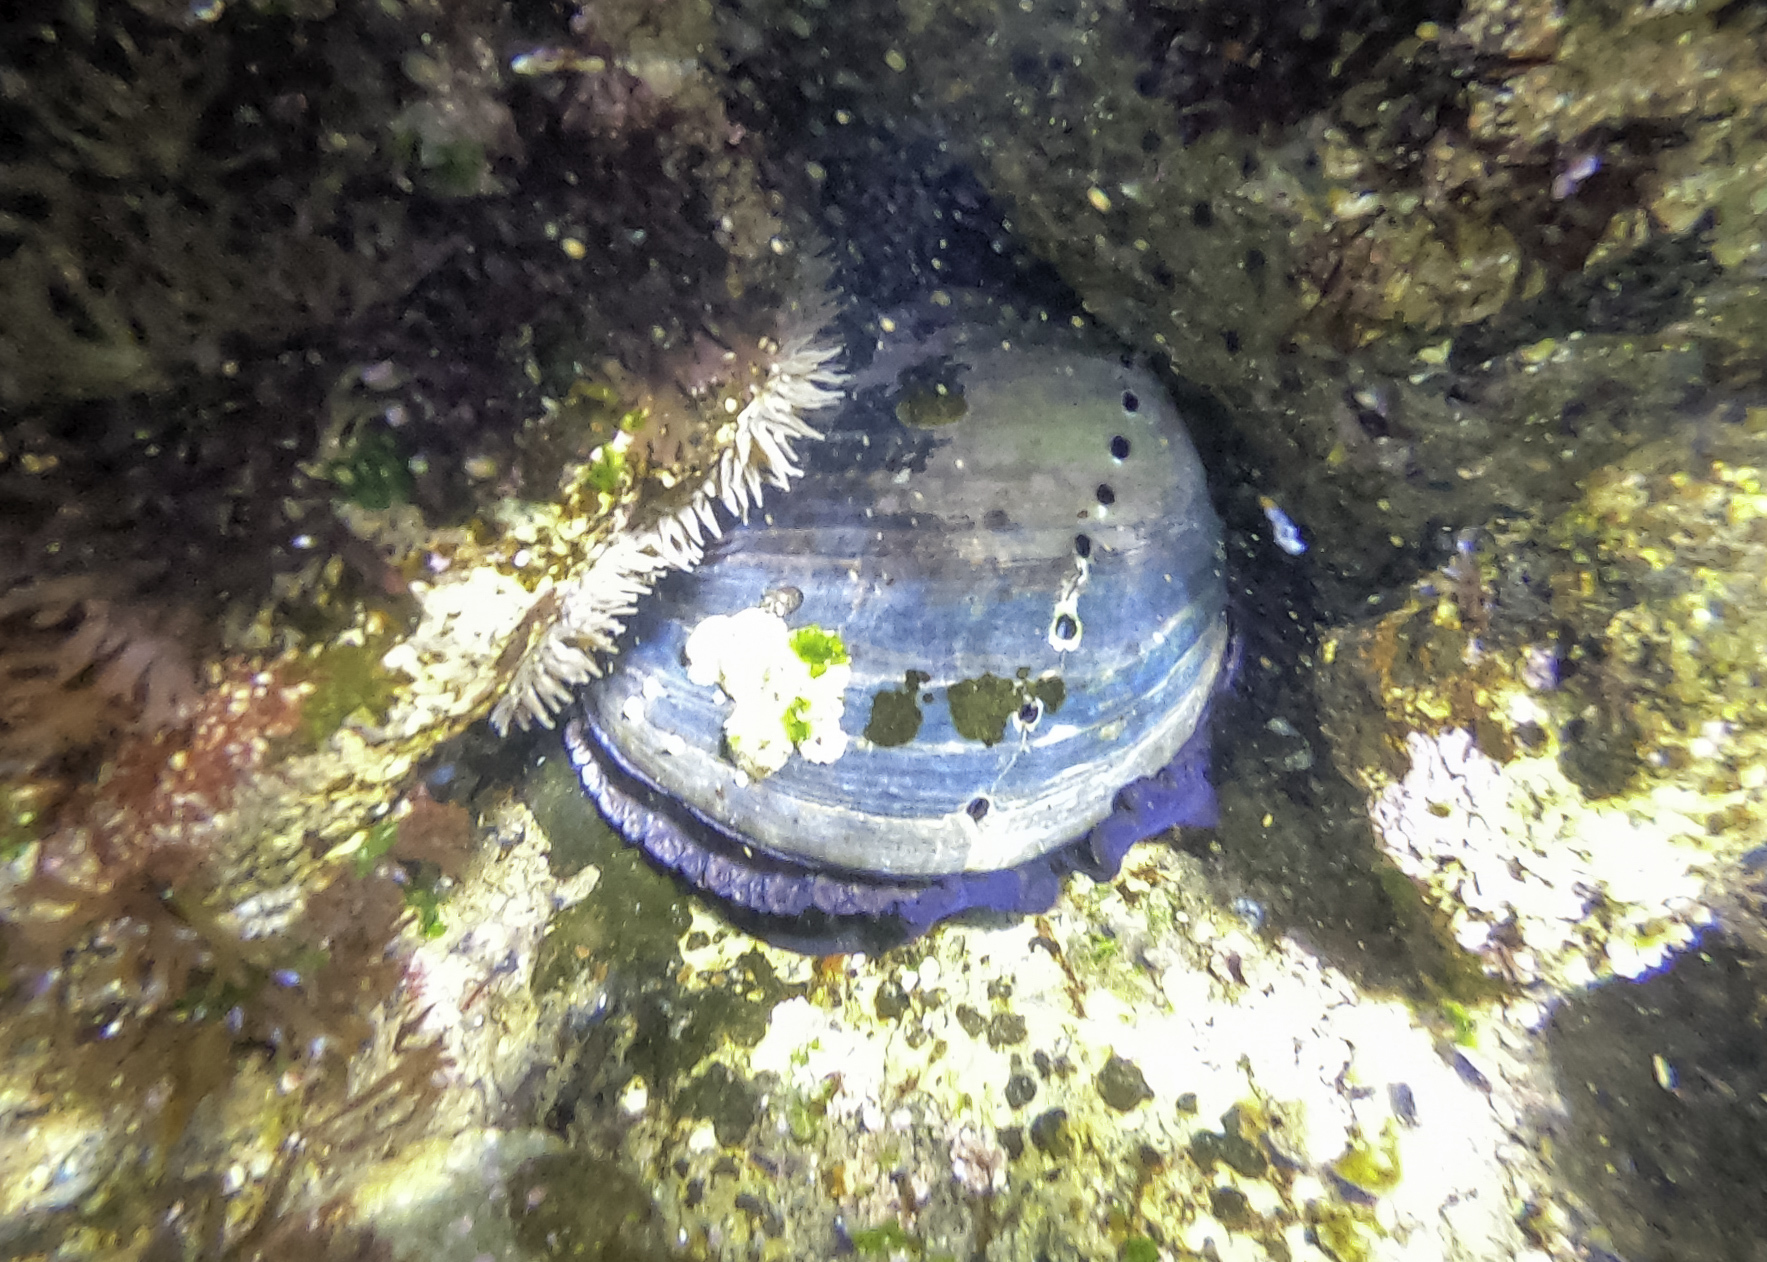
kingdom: Animalia
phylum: Mollusca
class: Gastropoda
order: Lepetellida
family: Haliotidae
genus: Haliotis
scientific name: Haliotis cracherodii
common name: Black abalone
